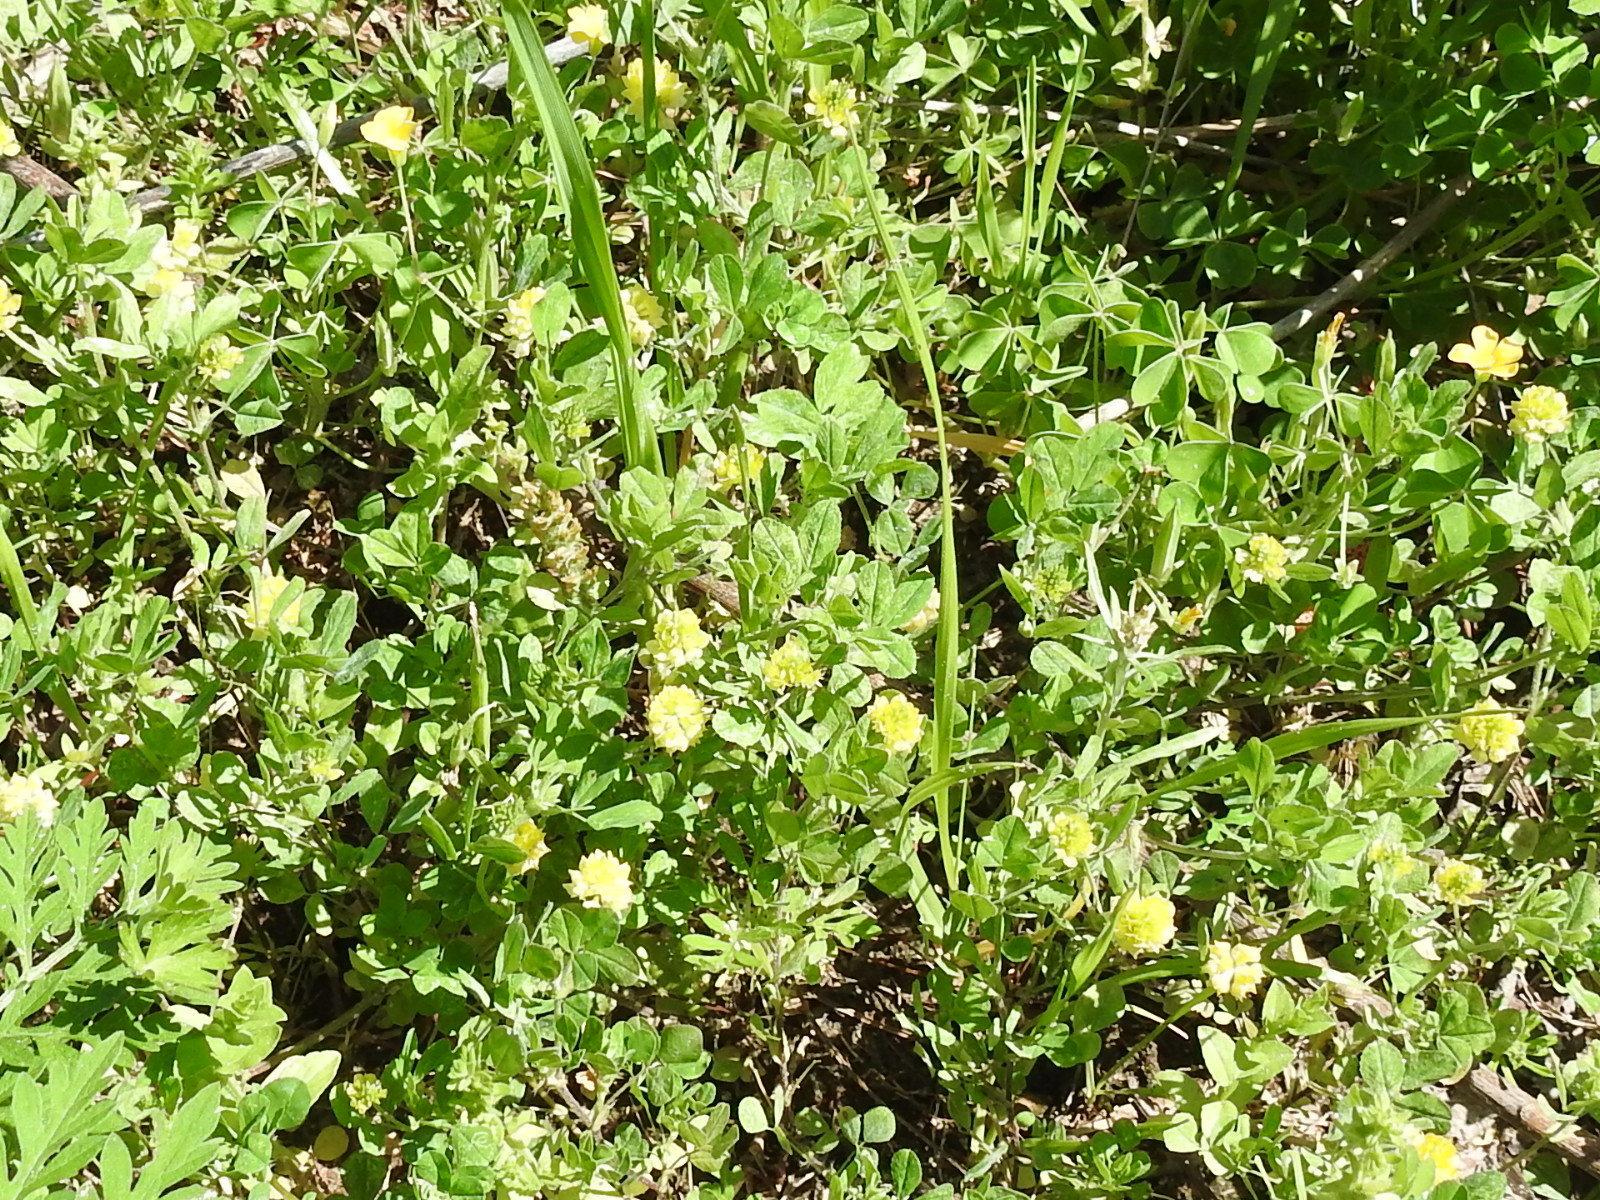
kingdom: Plantae
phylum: Tracheophyta
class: Magnoliopsida
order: Fabales
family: Fabaceae
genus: Trifolium
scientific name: Trifolium campestre
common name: Field clover
